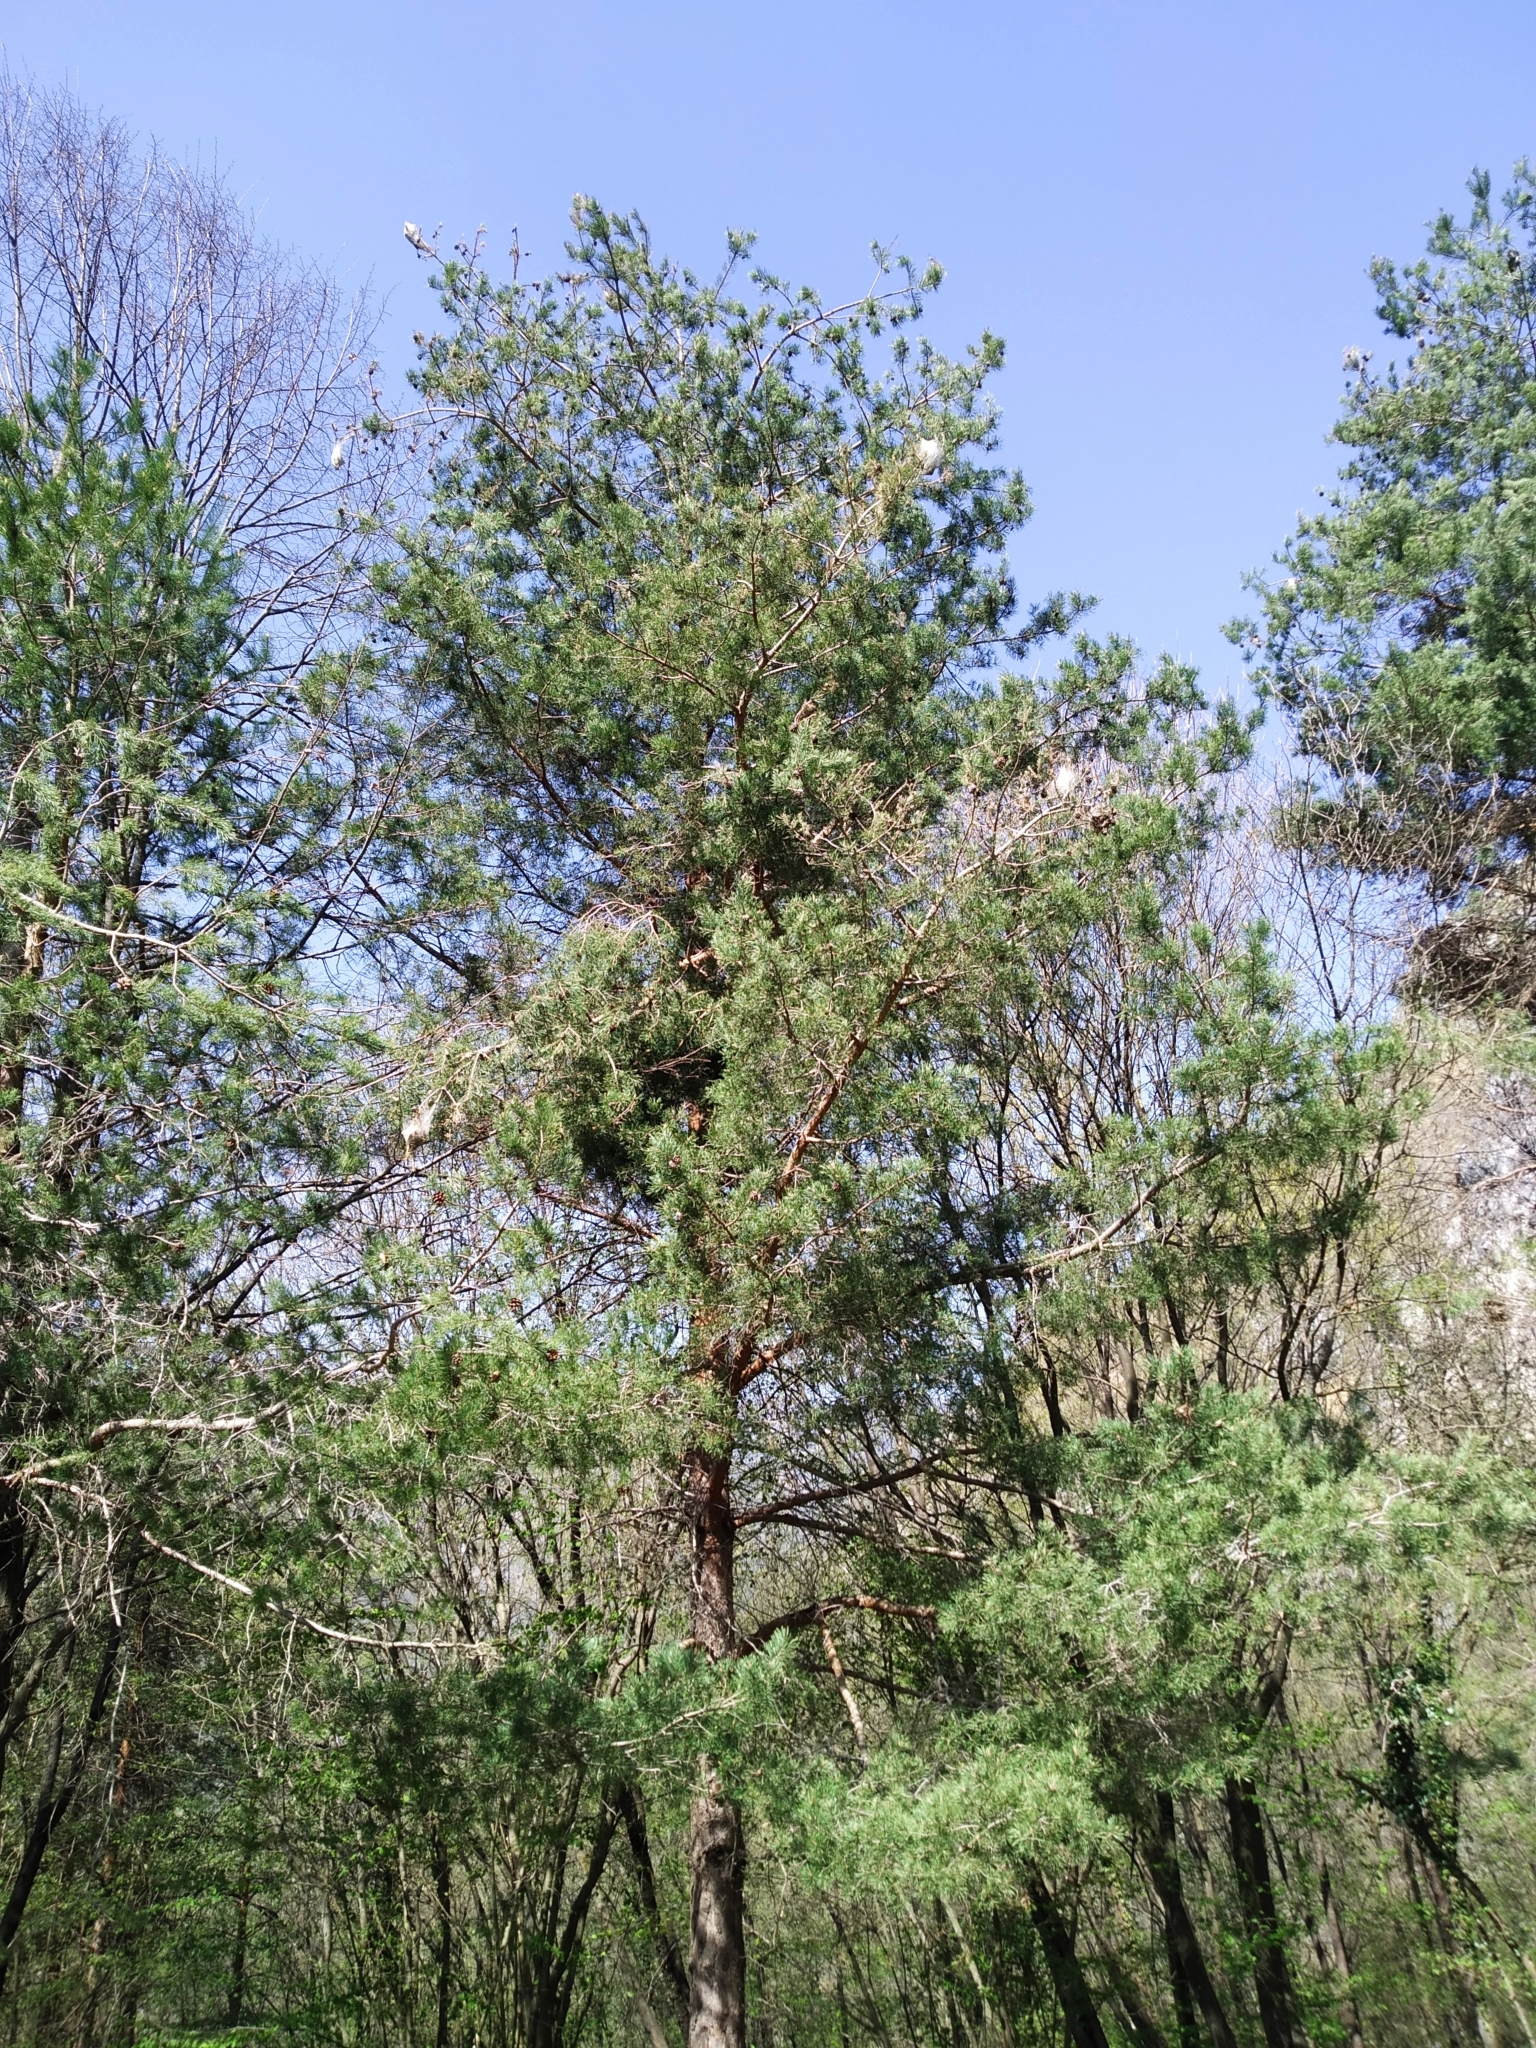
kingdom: Animalia
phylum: Arthropoda
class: Insecta
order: Lepidoptera
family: Notodontidae
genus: Thaumetopoea
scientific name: Thaumetopoea pityocampa
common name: Pine processionary
